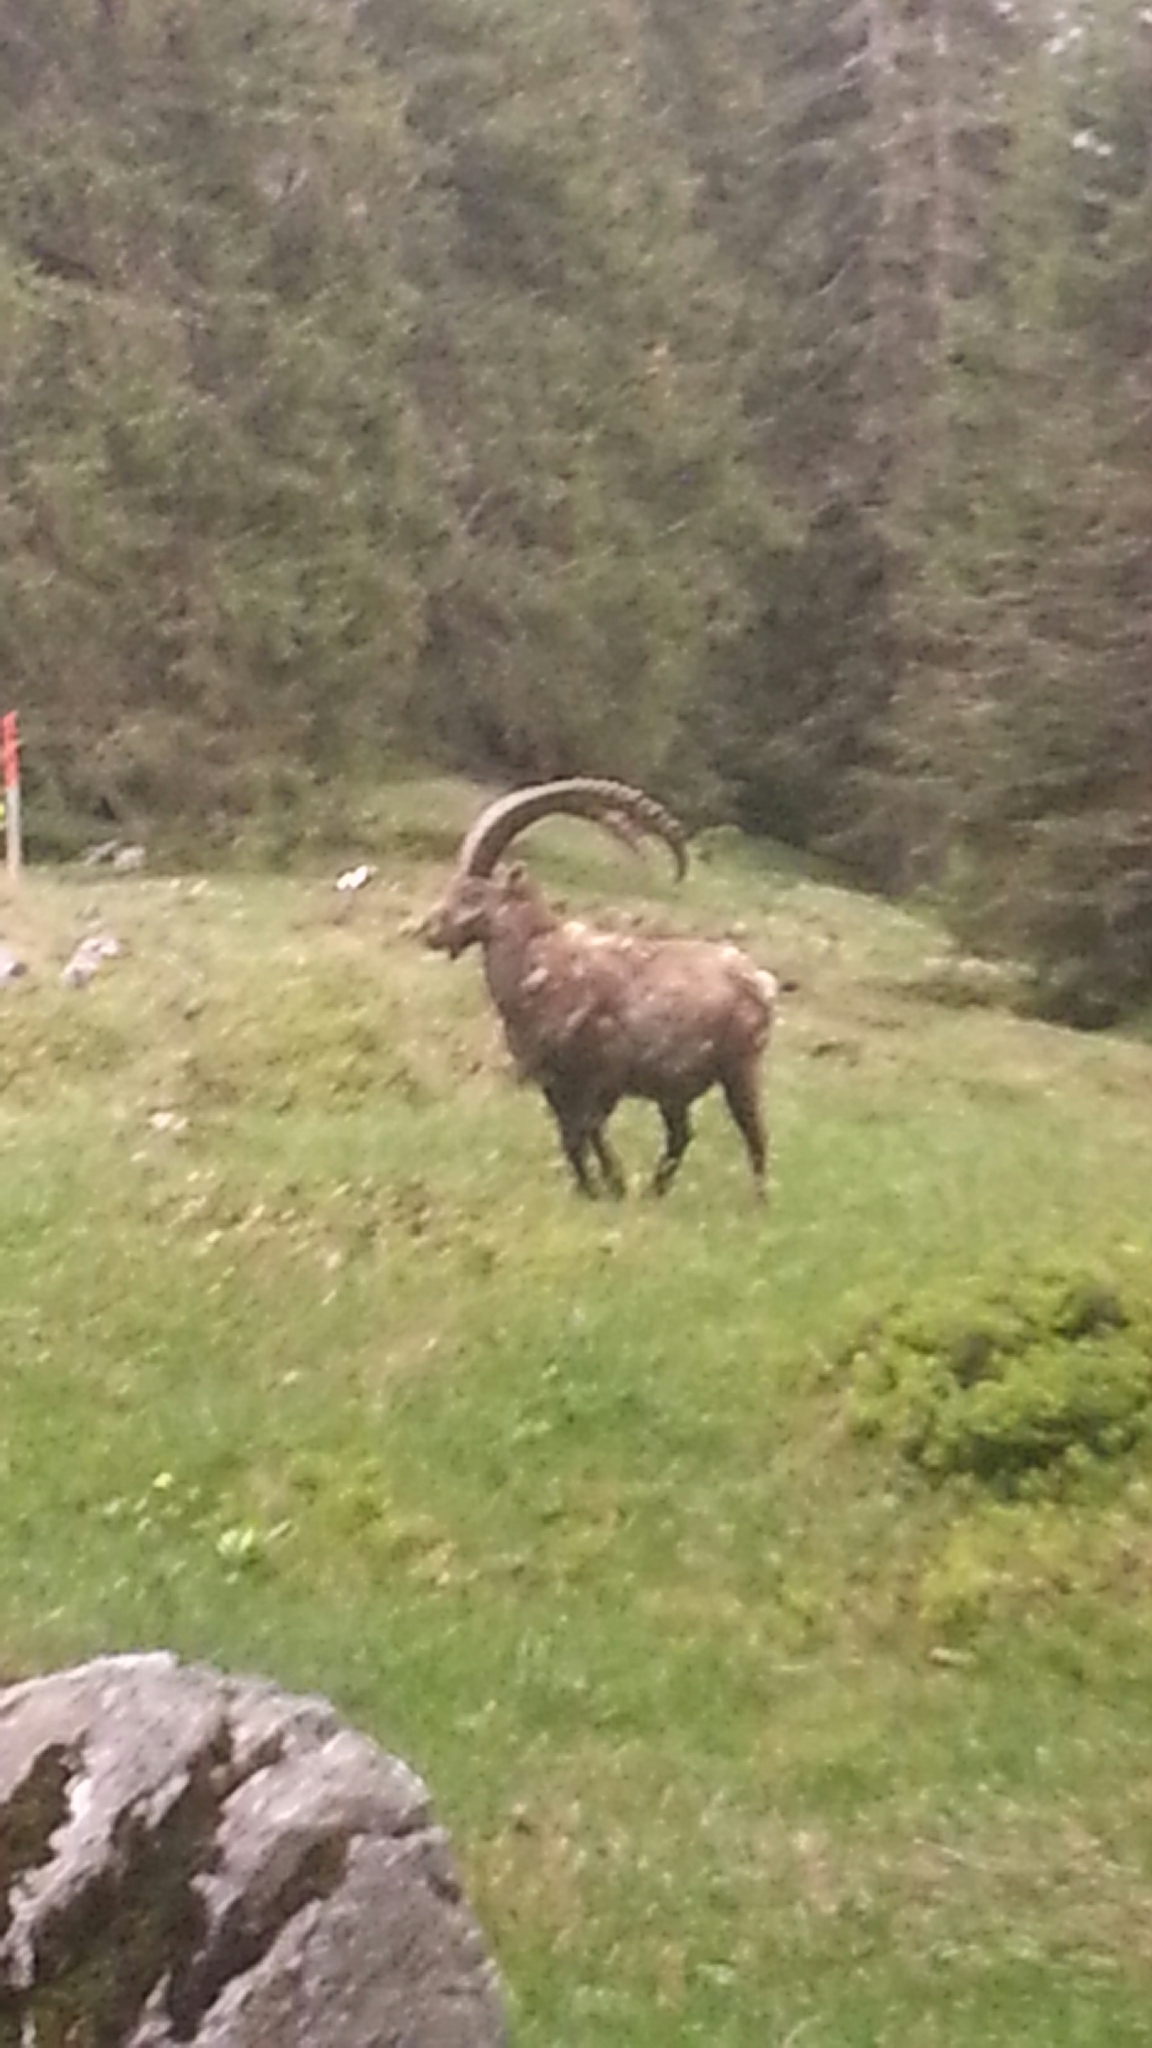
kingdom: Animalia
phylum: Chordata
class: Mammalia
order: Artiodactyla
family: Bovidae
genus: Capra
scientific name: Capra ibex
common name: Alpine ibex
